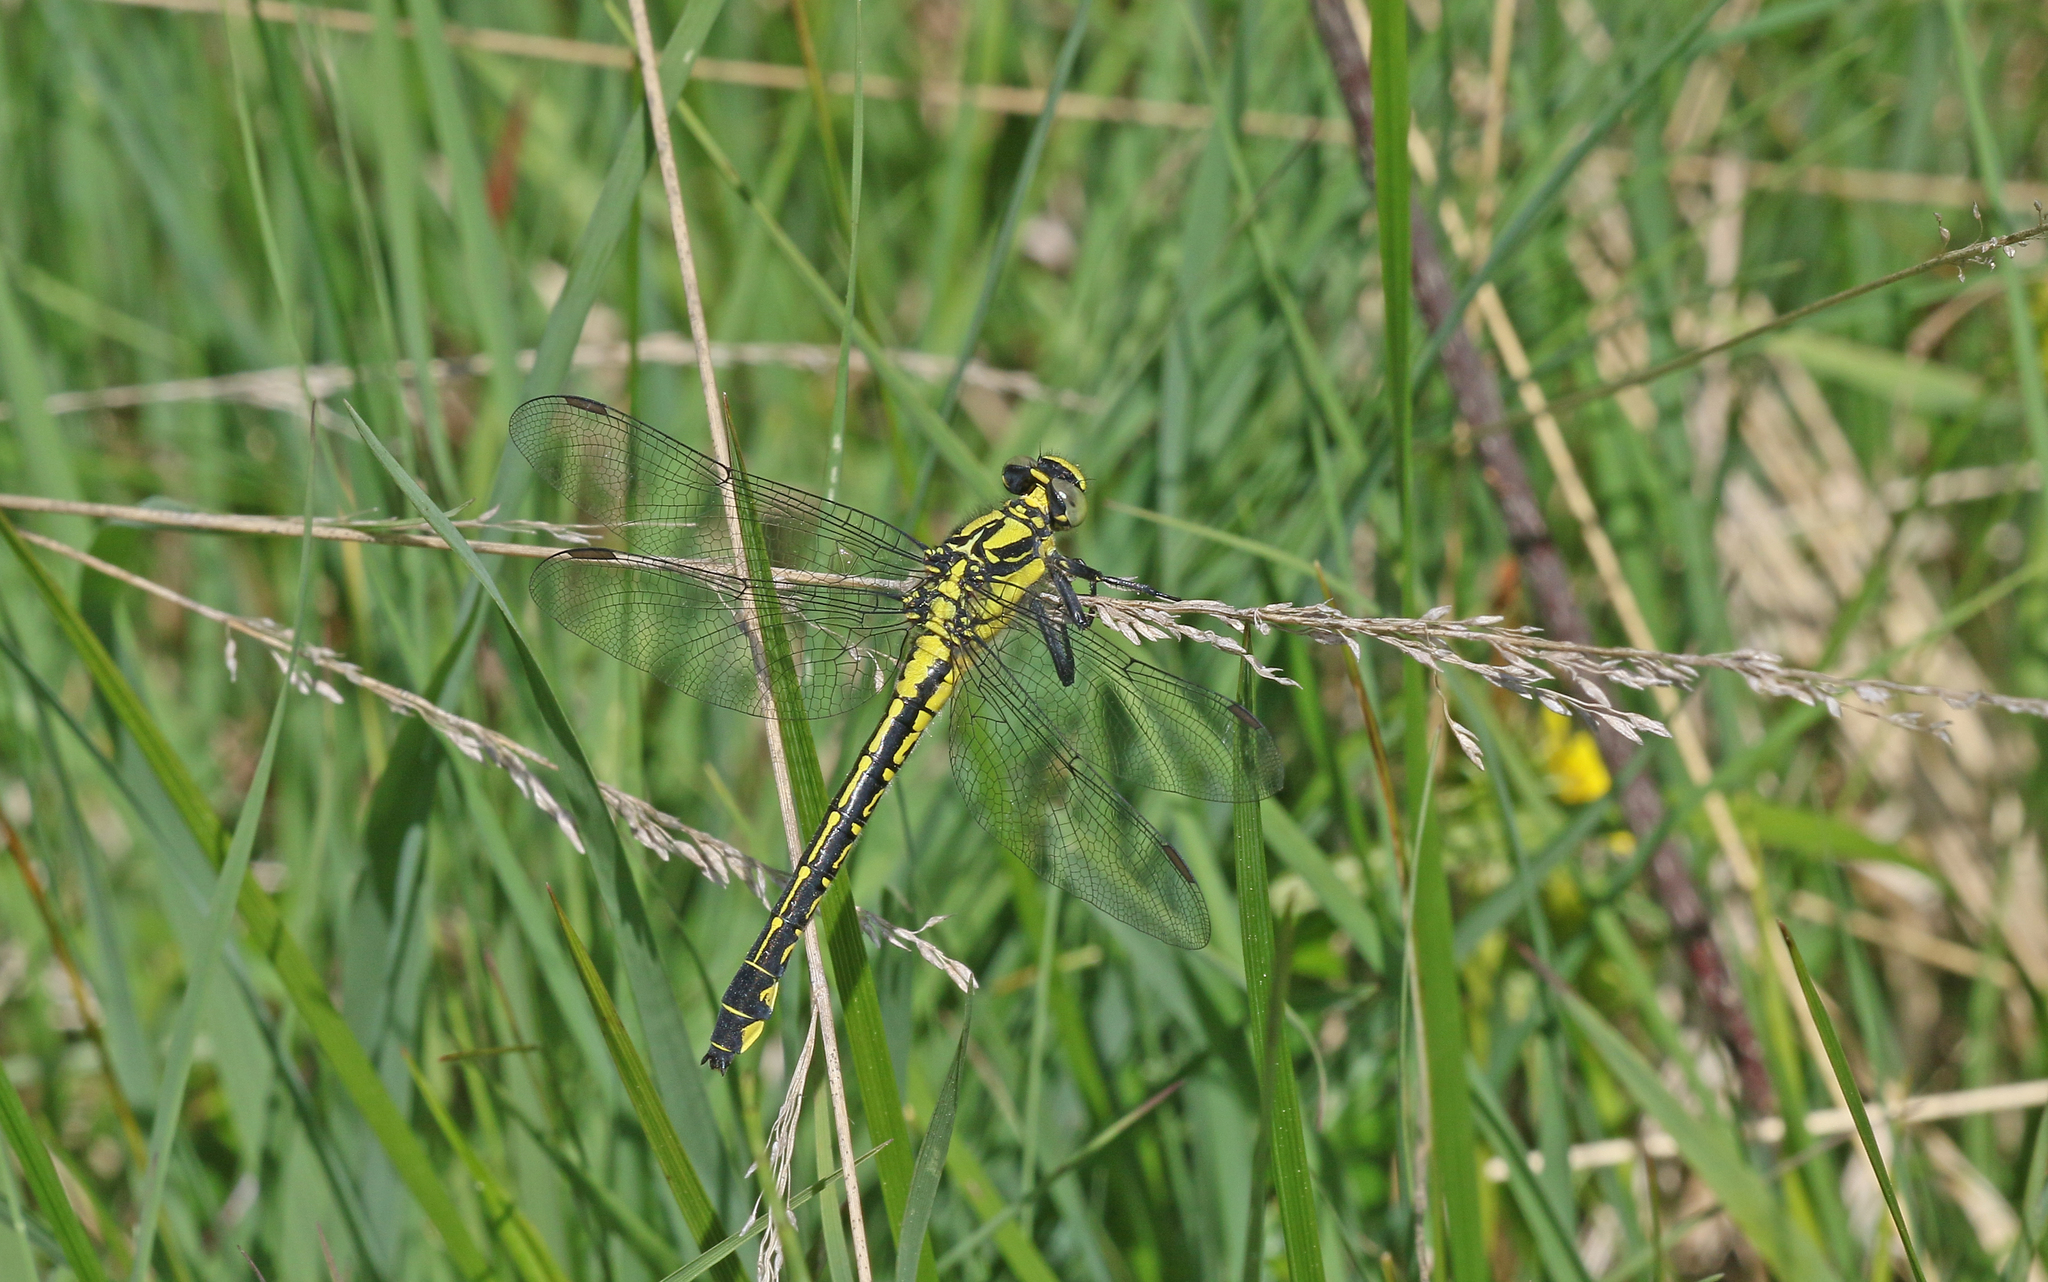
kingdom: Animalia
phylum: Arthropoda
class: Insecta
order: Odonata
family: Gomphidae
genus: Gomphus
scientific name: Gomphus vulgatissimus
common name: Club-tailed dragonfly
